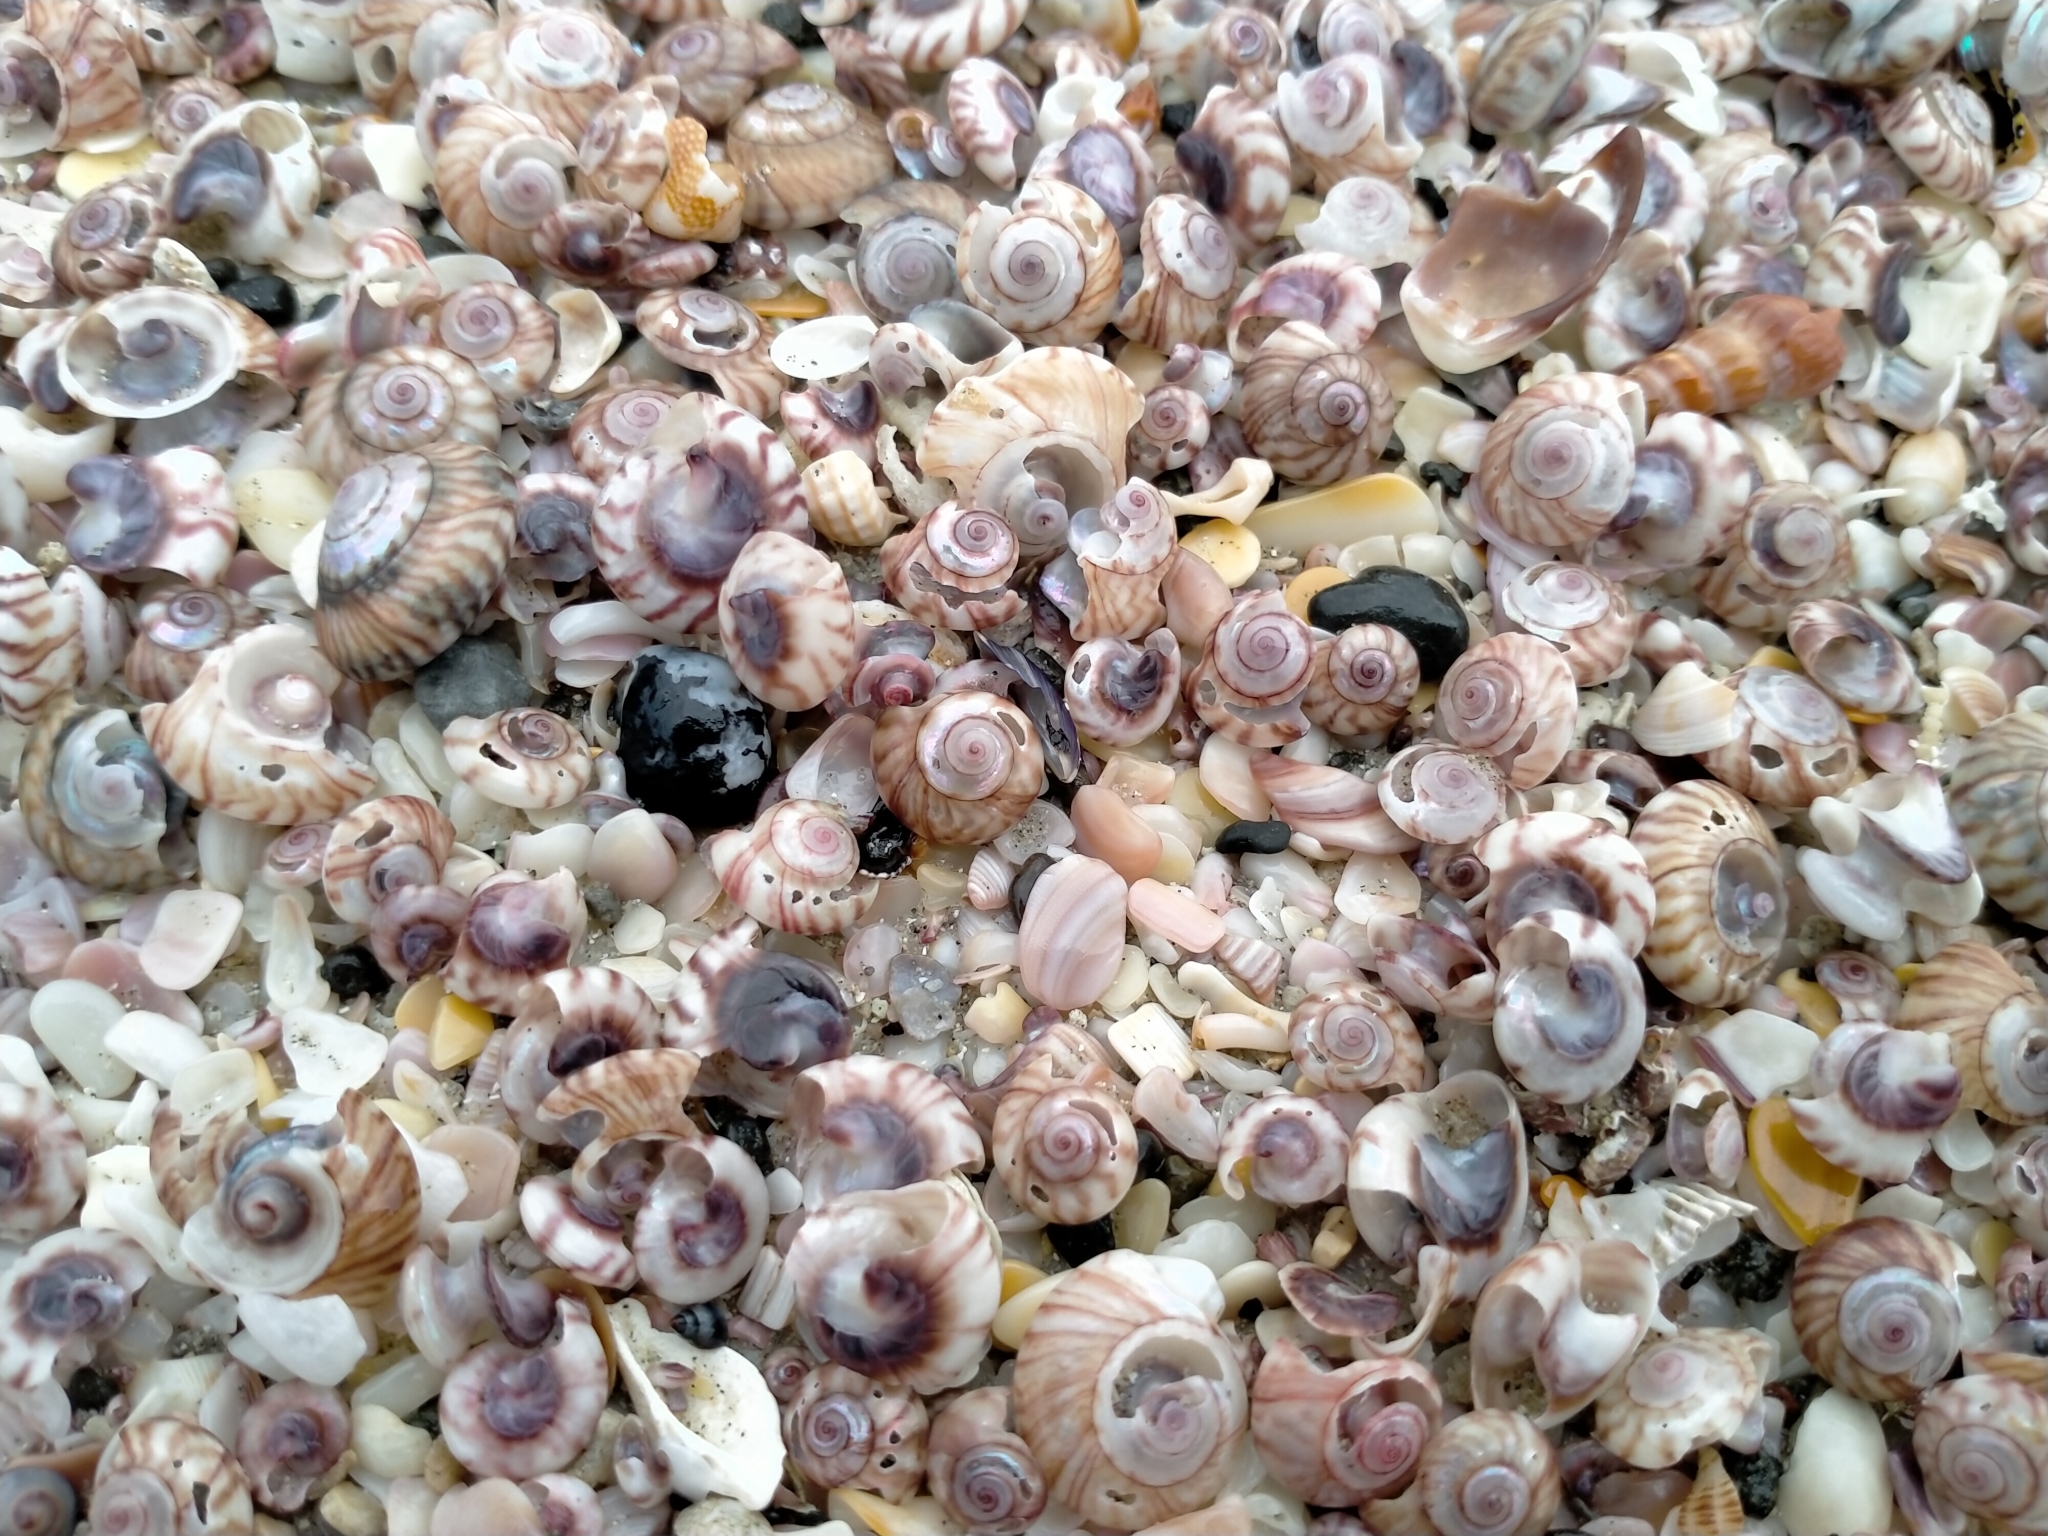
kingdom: Animalia
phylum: Mollusca
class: Gastropoda
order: Trochida
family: Trochidae
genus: Zethalia
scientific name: Zethalia zelandica
